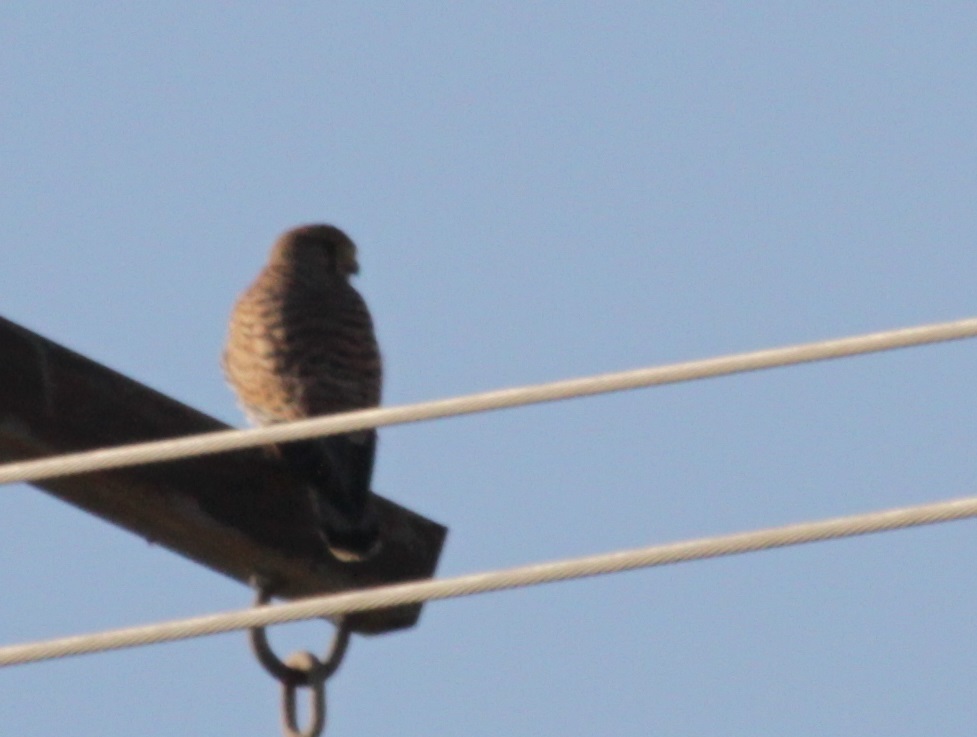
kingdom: Animalia
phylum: Chordata
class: Aves
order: Falconiformes
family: Falconidae
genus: Falco
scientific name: Falco tinnunculus
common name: Common kestrel
